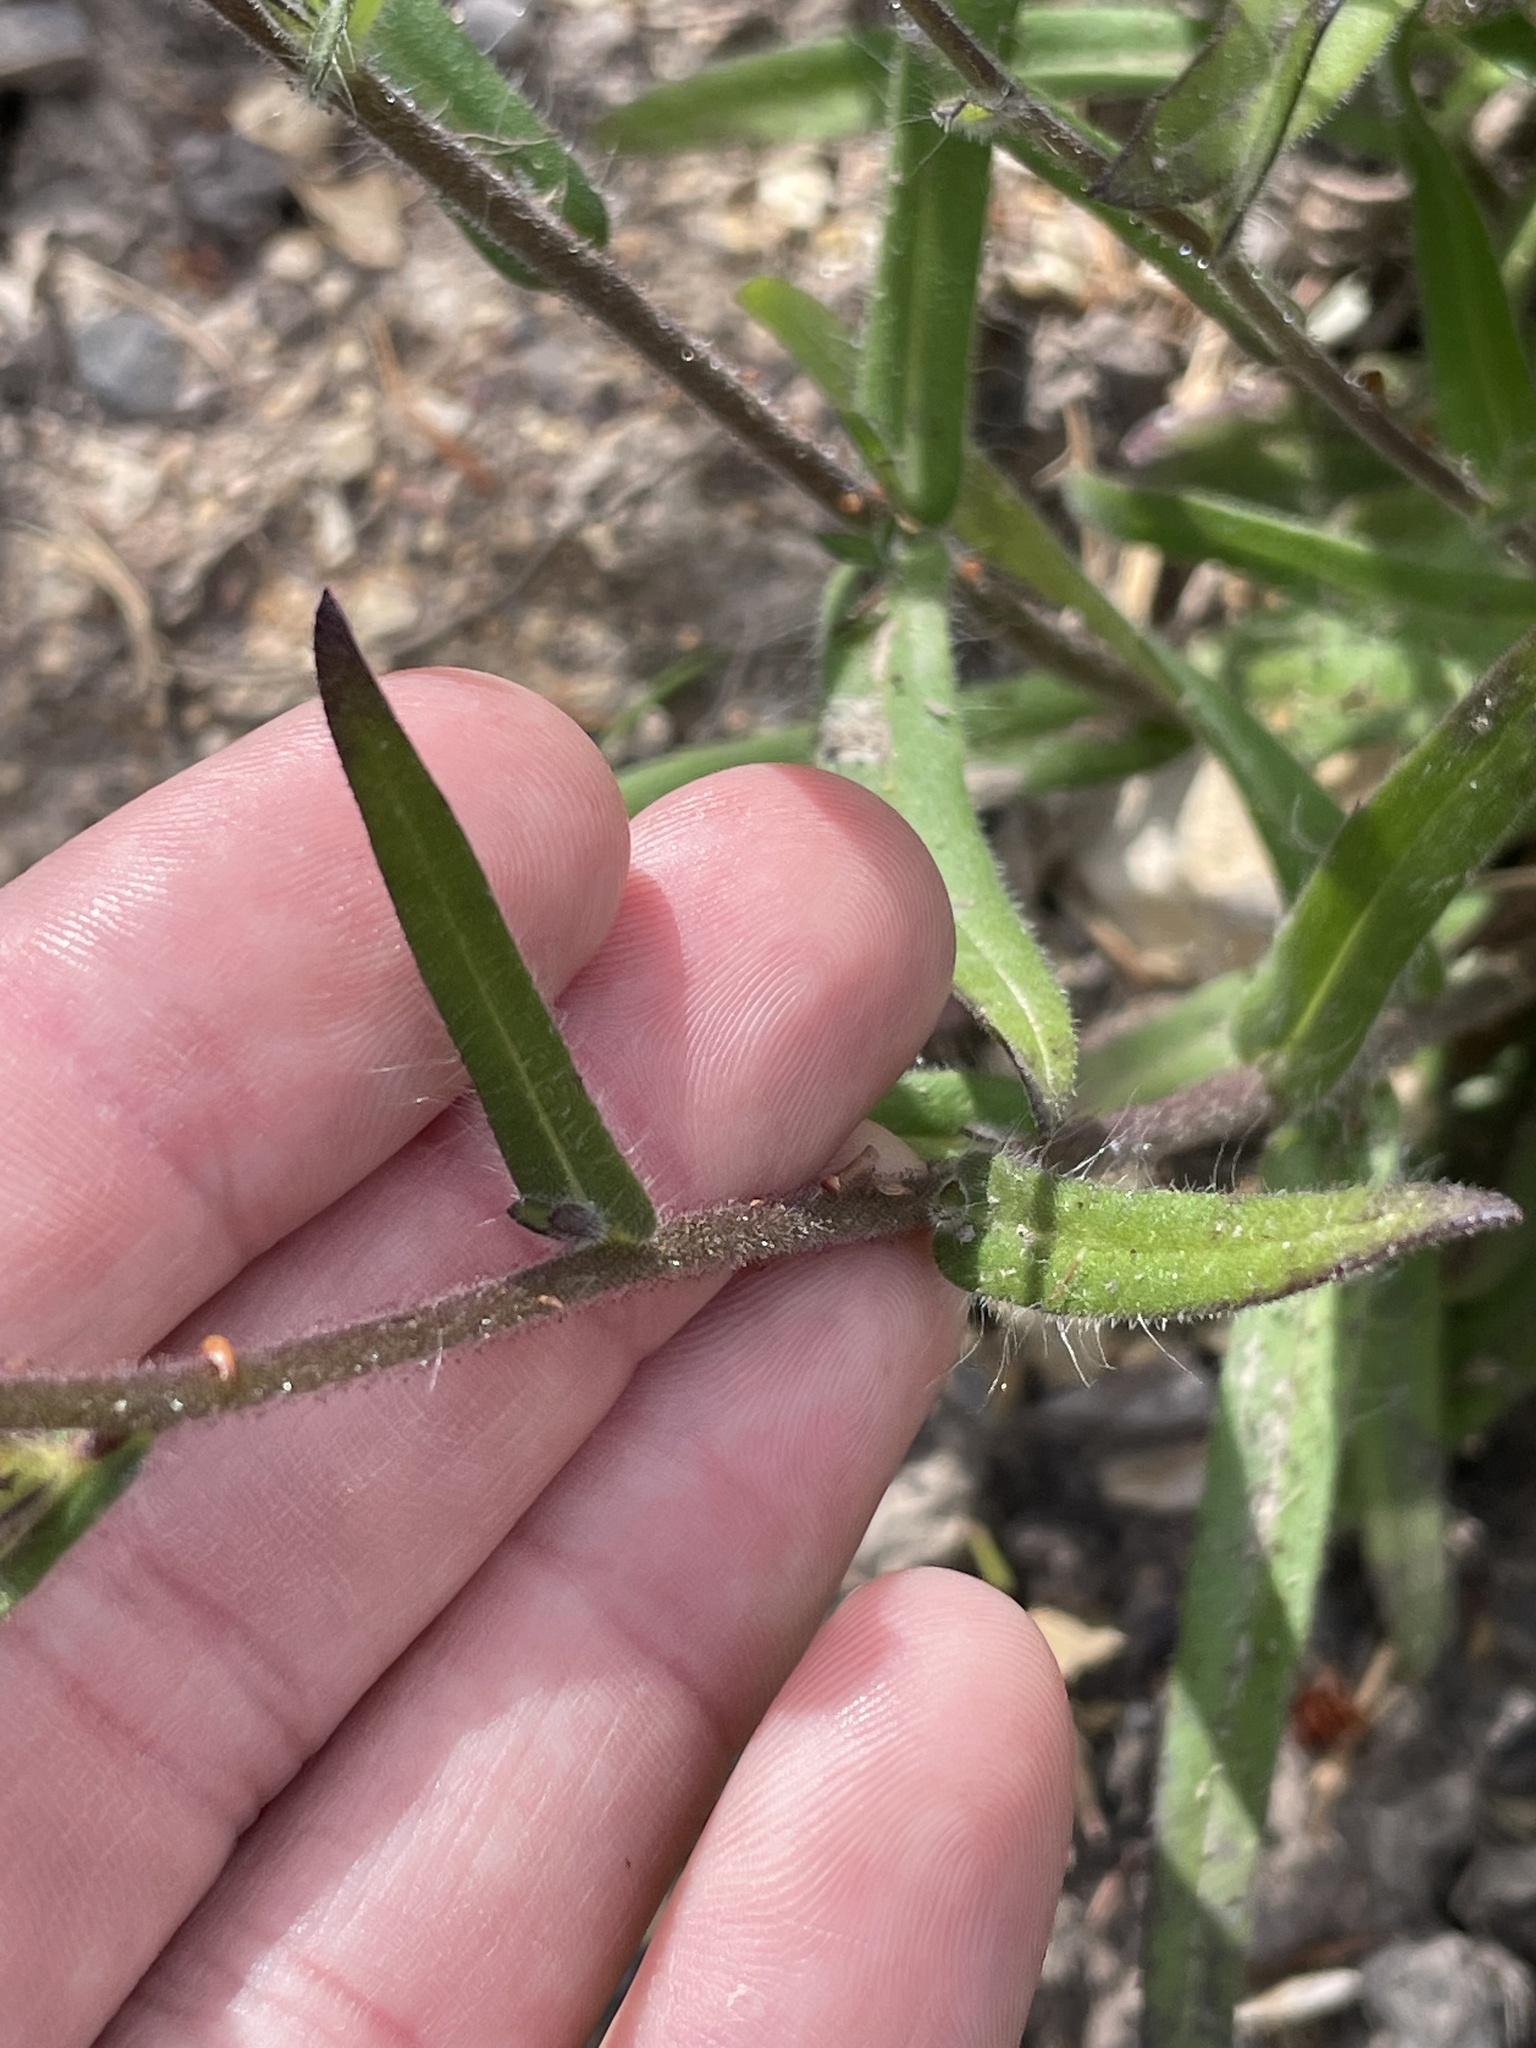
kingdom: Plantae
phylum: Tracheophyta
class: Magnoliopsida
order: Asterales
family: Asteraceae
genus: Anisocarpus
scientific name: Anisocarpus madioides
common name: Woodland madia
